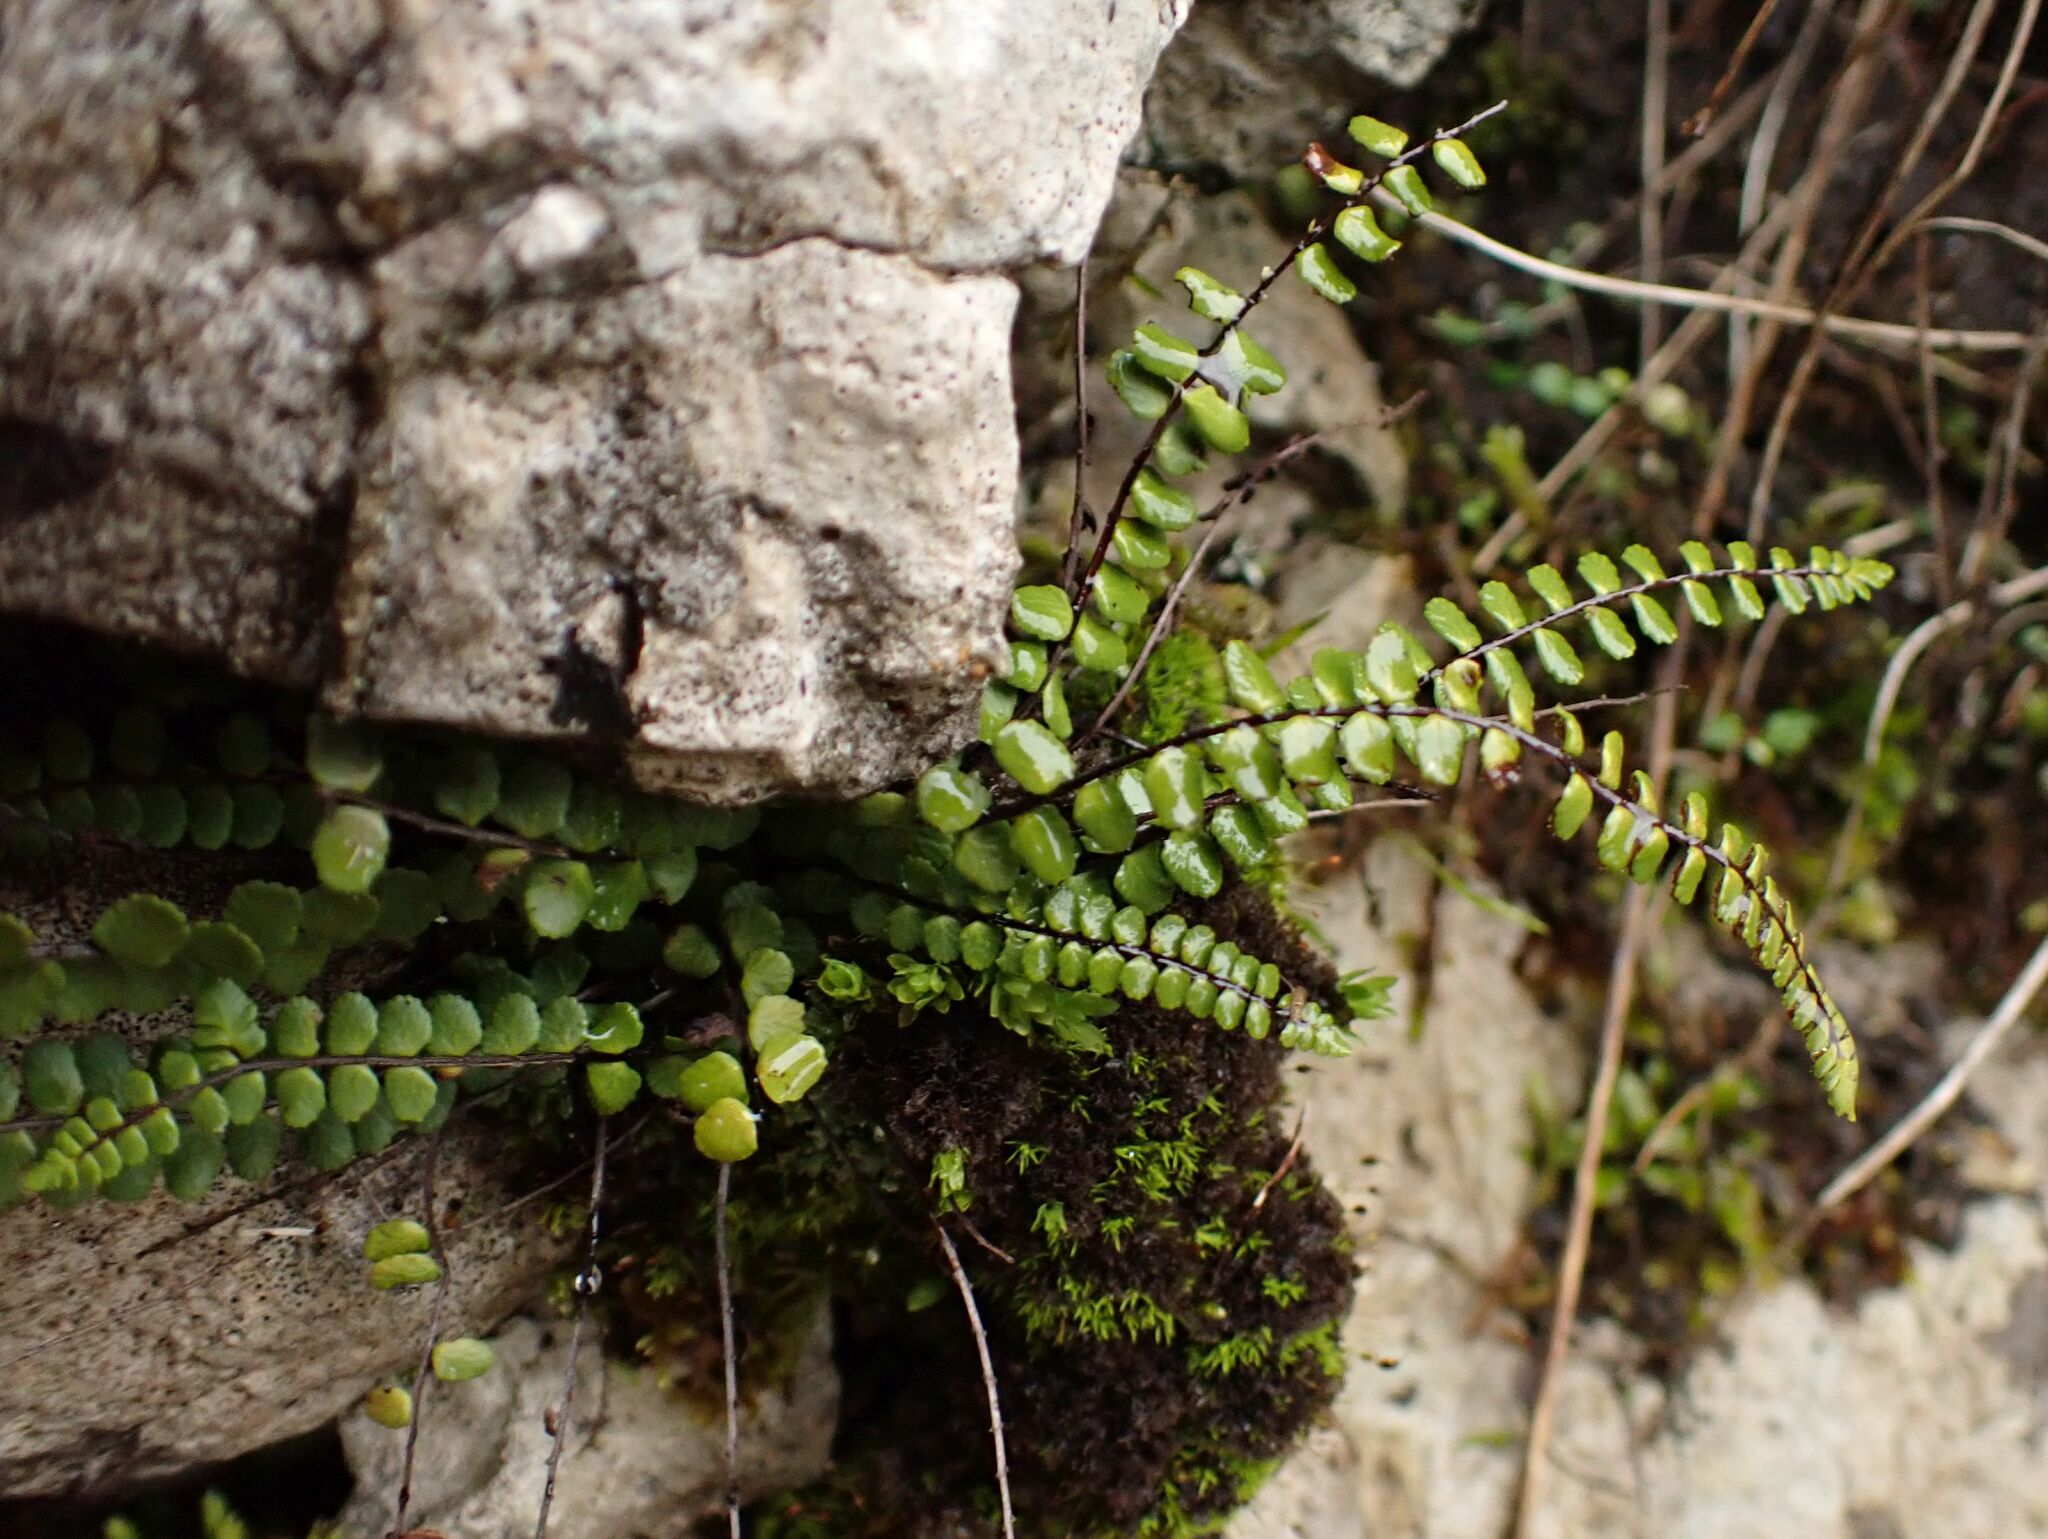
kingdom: Plantae
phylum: Tracheophyta
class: Polypodiopsida
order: Polypodiales
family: Aspleniaceae
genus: Asplenium
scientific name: Asplenium trichomanes
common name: Maidenhair spleenwort
